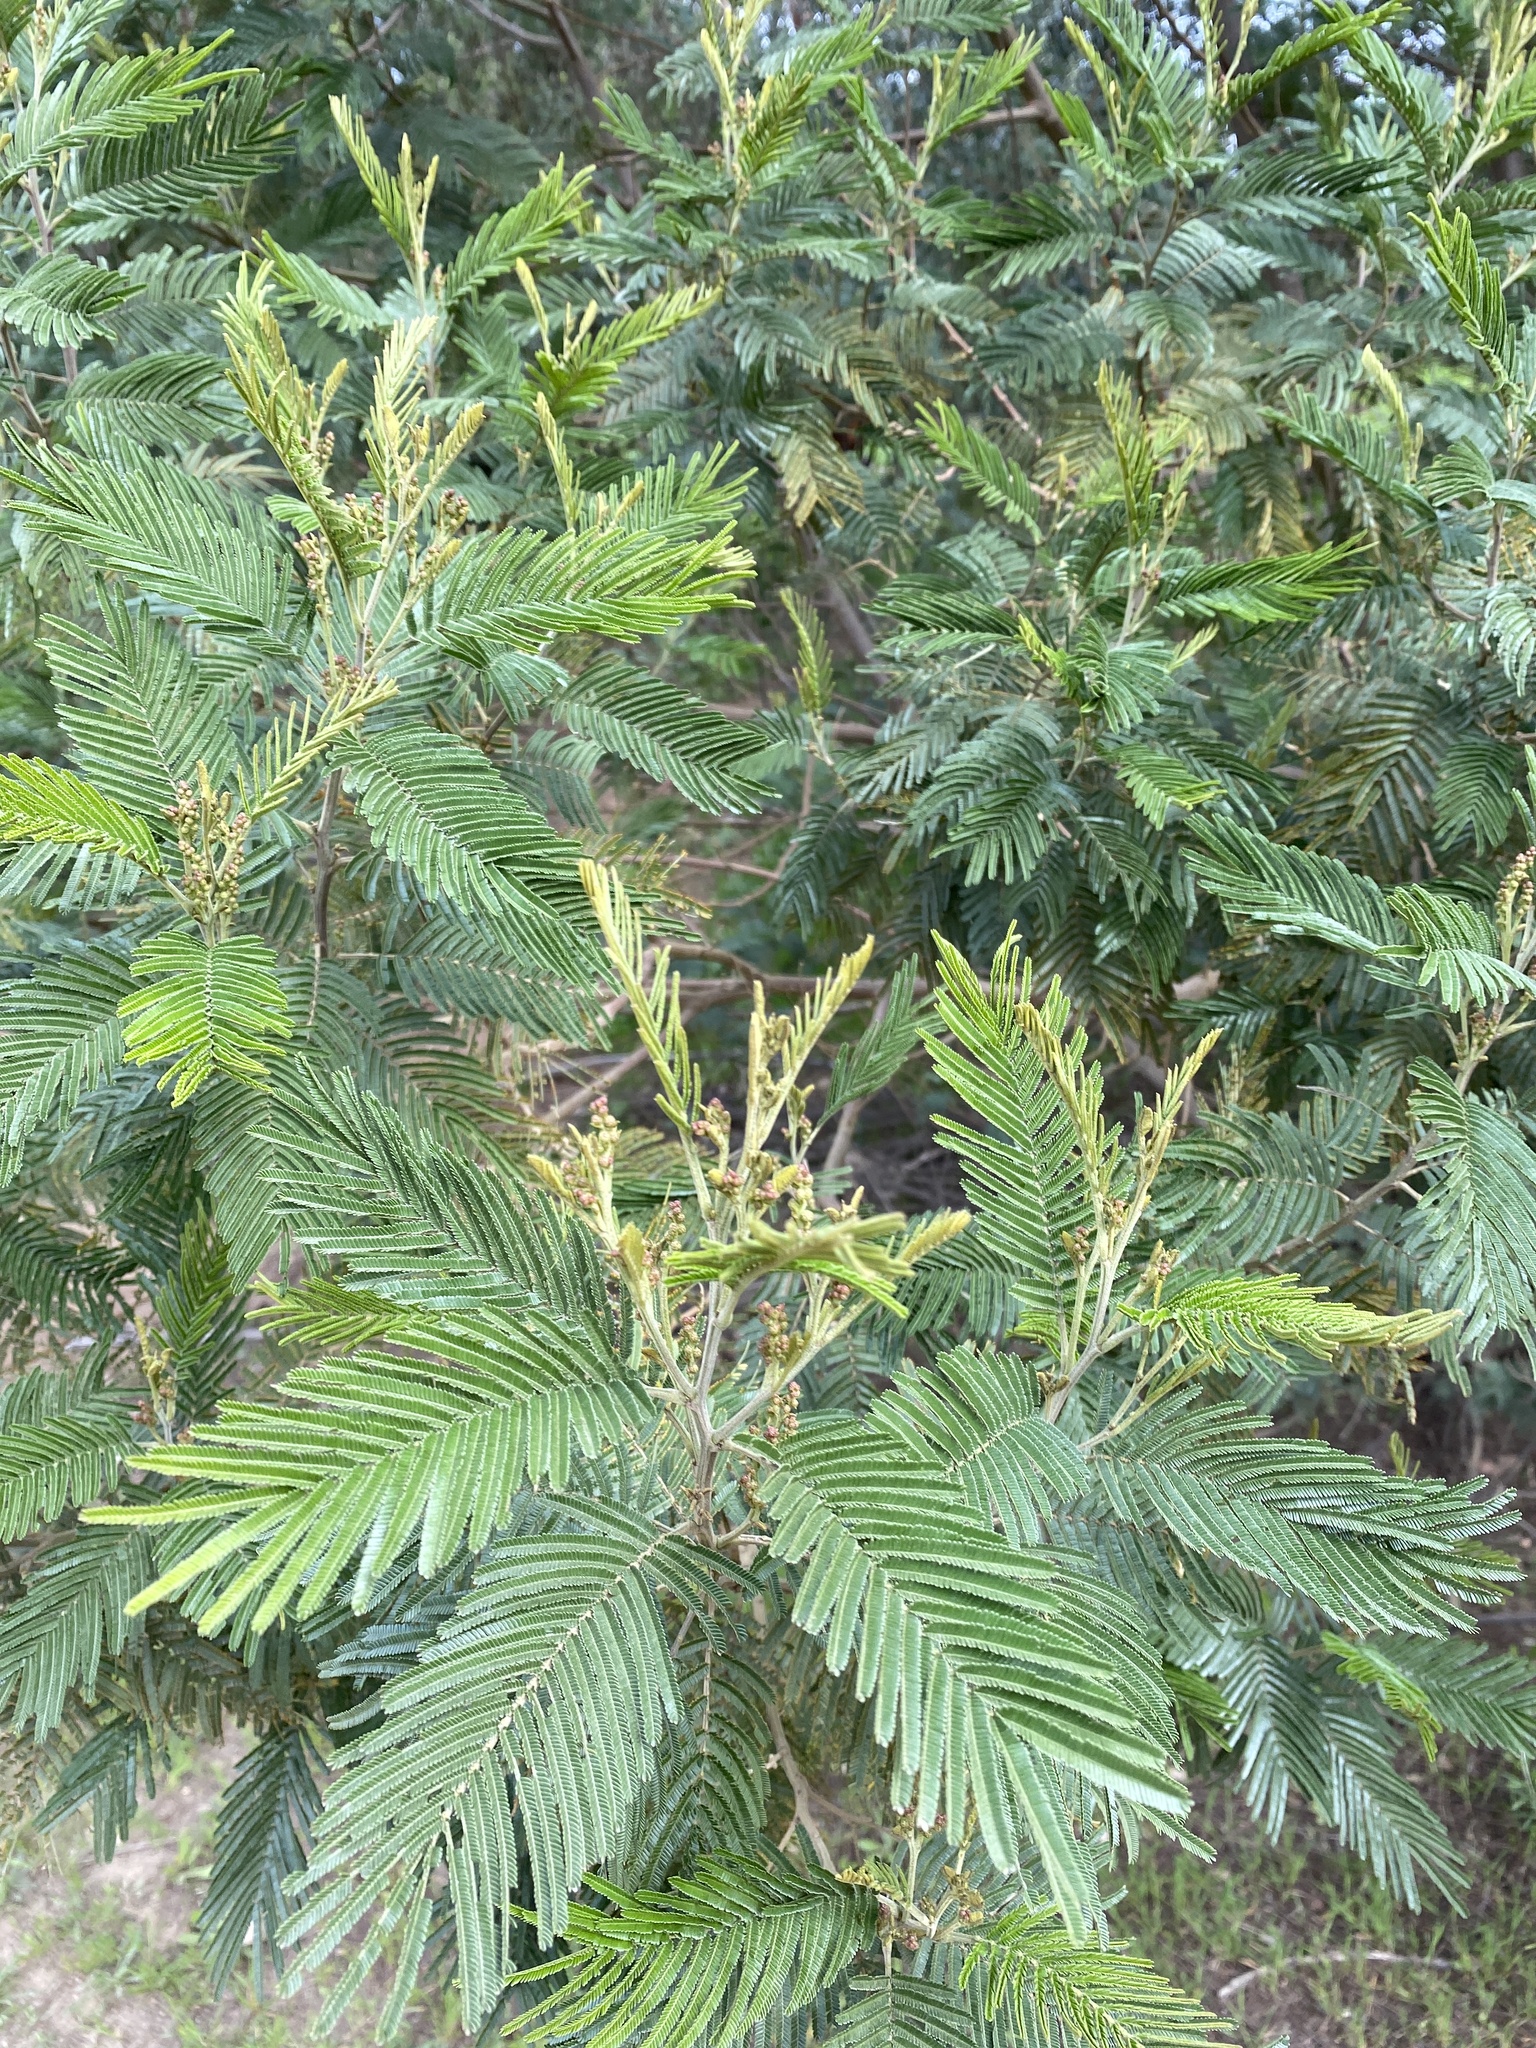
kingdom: Plantae
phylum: Tracheophyta
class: Magnoliopsida
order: Fabales
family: Fabaceae
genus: Acacia
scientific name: Acacia dealbata
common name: Silver wattle
